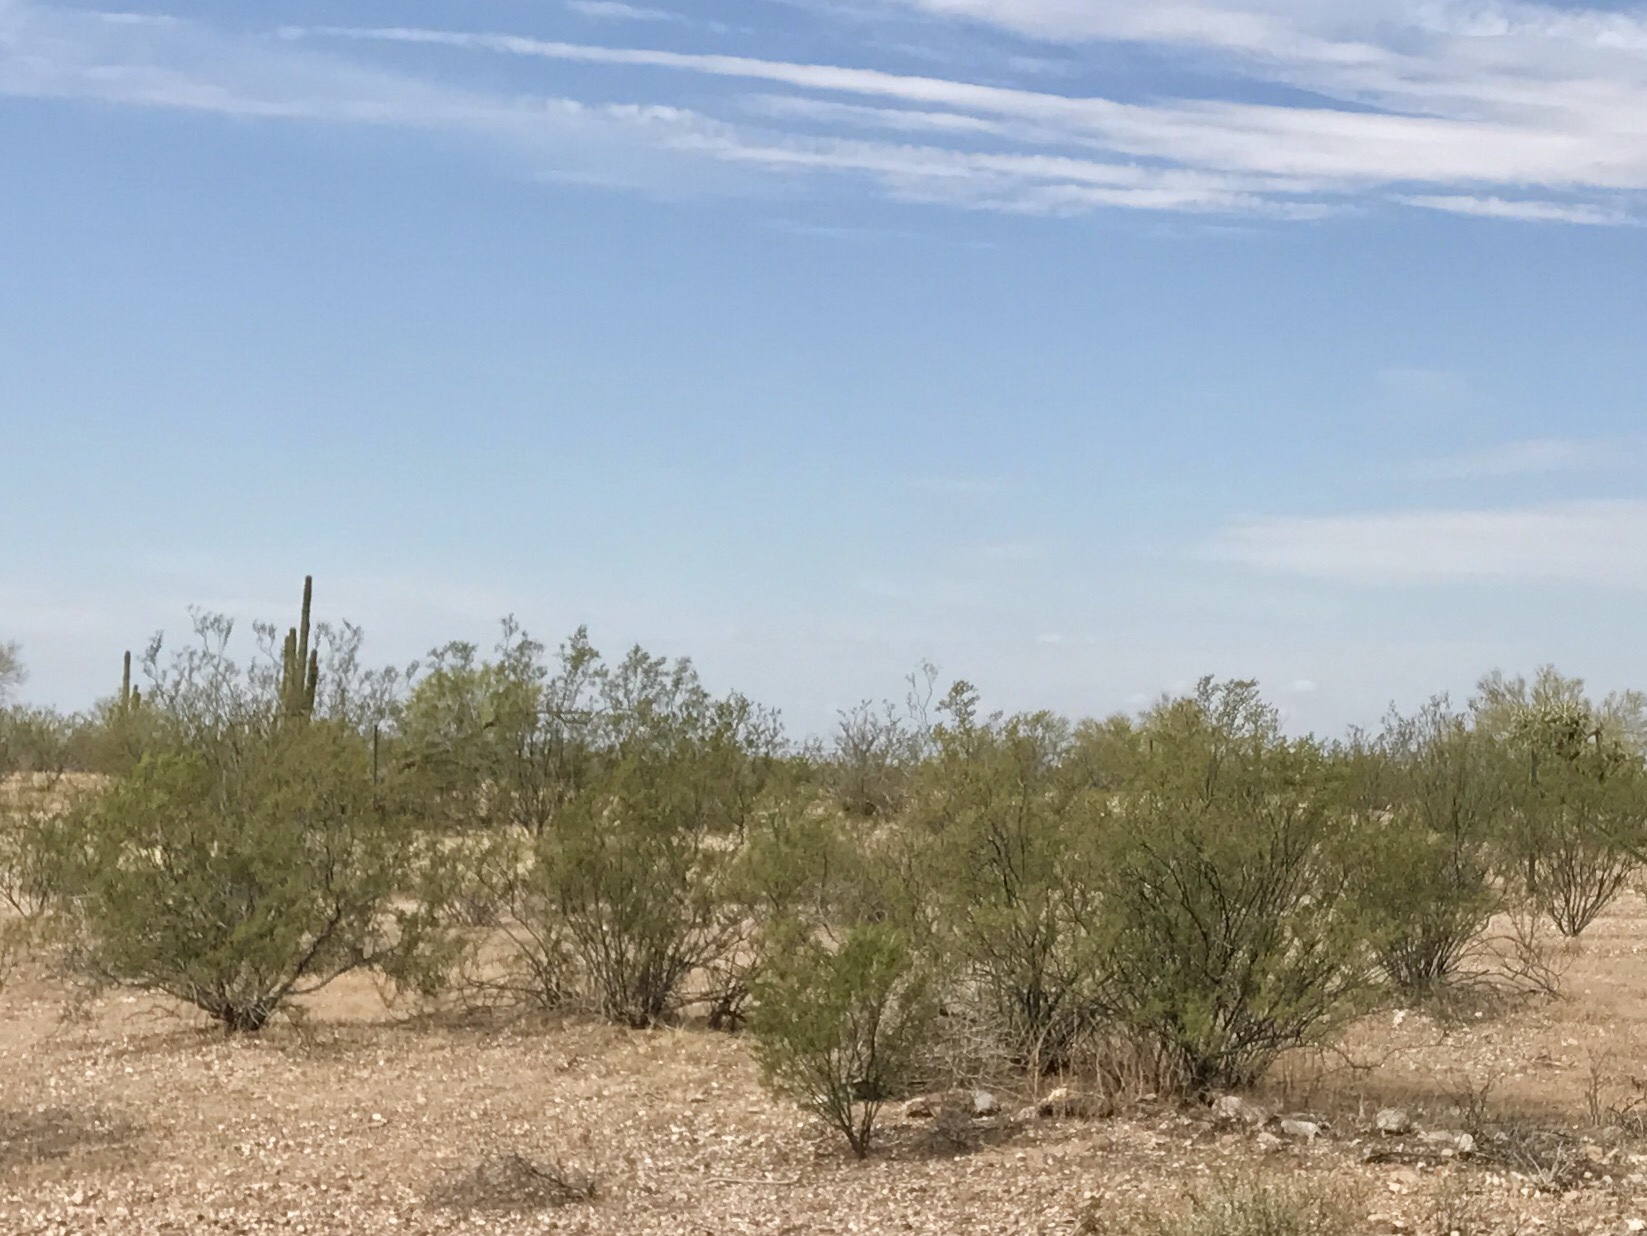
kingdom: Plantae
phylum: Tracheophyta
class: Magnoliopsida
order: Zygophyllales
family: Zygophyllaceae
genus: Larrea
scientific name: Larrea tridentata
